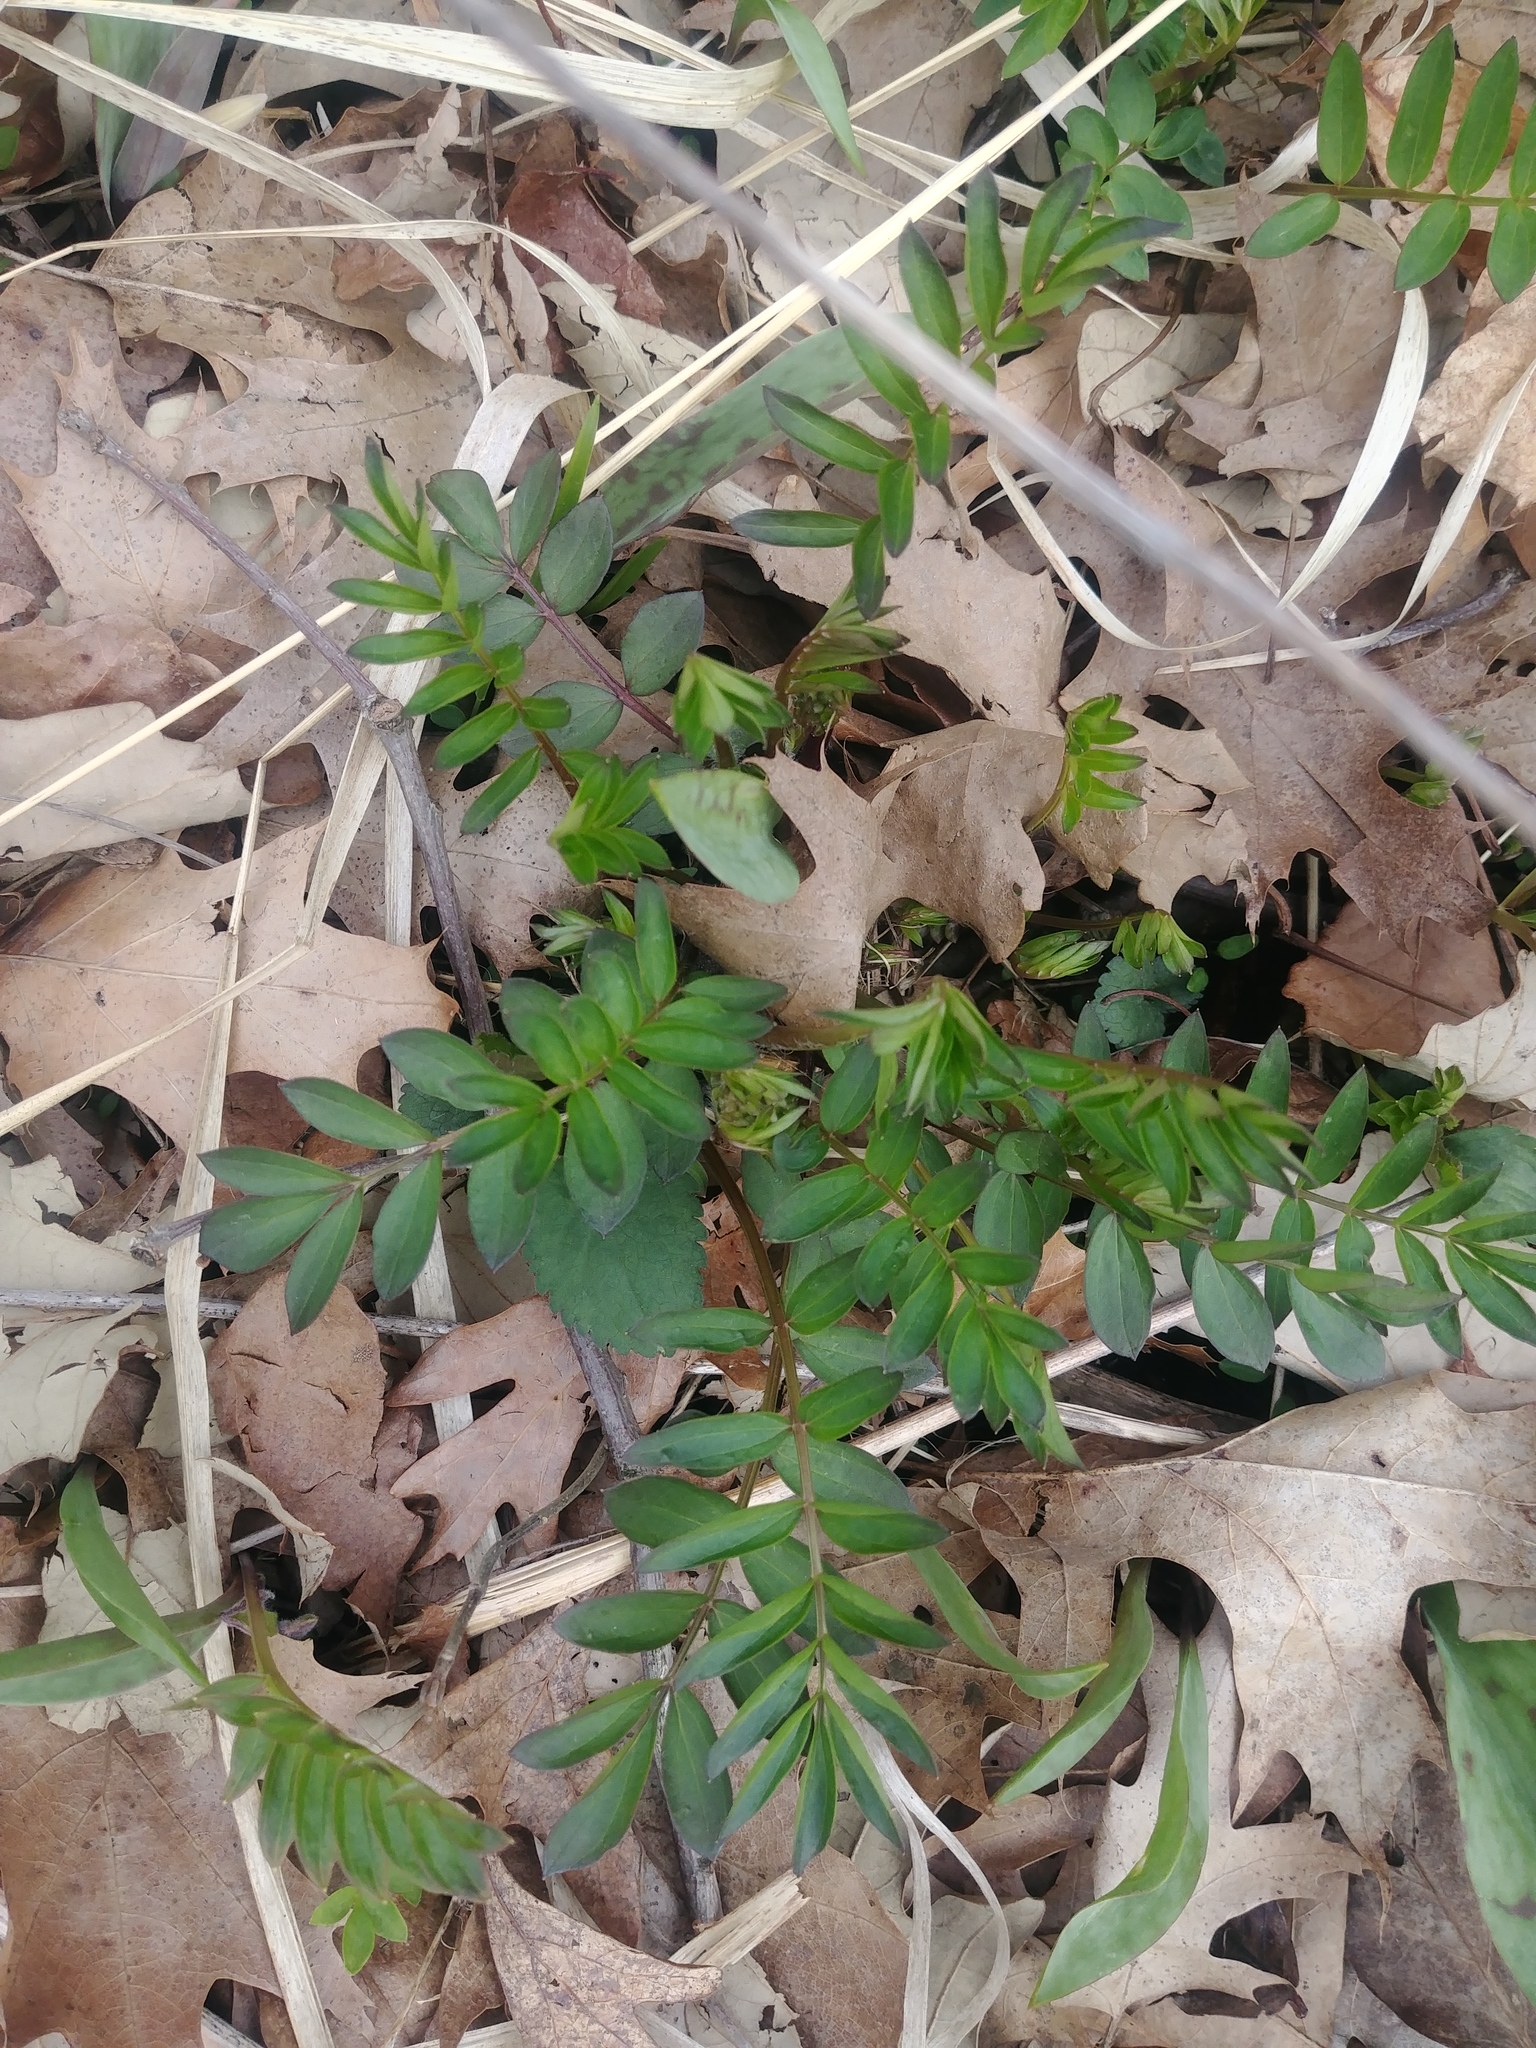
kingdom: Plantae
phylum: Tracheophyta
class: Magnoliopsida
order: Ericales
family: Polemoniaceae
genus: Polemonium
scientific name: Polemonium reptans
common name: Creeping jacob's-ladder
